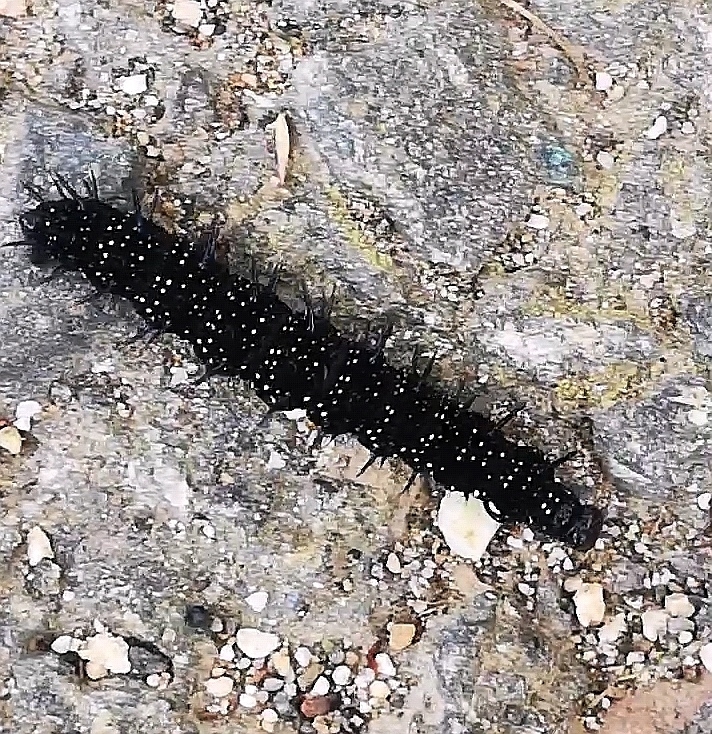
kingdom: Animalia
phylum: Arthropoda
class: Insecta
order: Lepidoptera
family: Nymphalidae
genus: Aglais
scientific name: Aglais io
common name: Peacock
